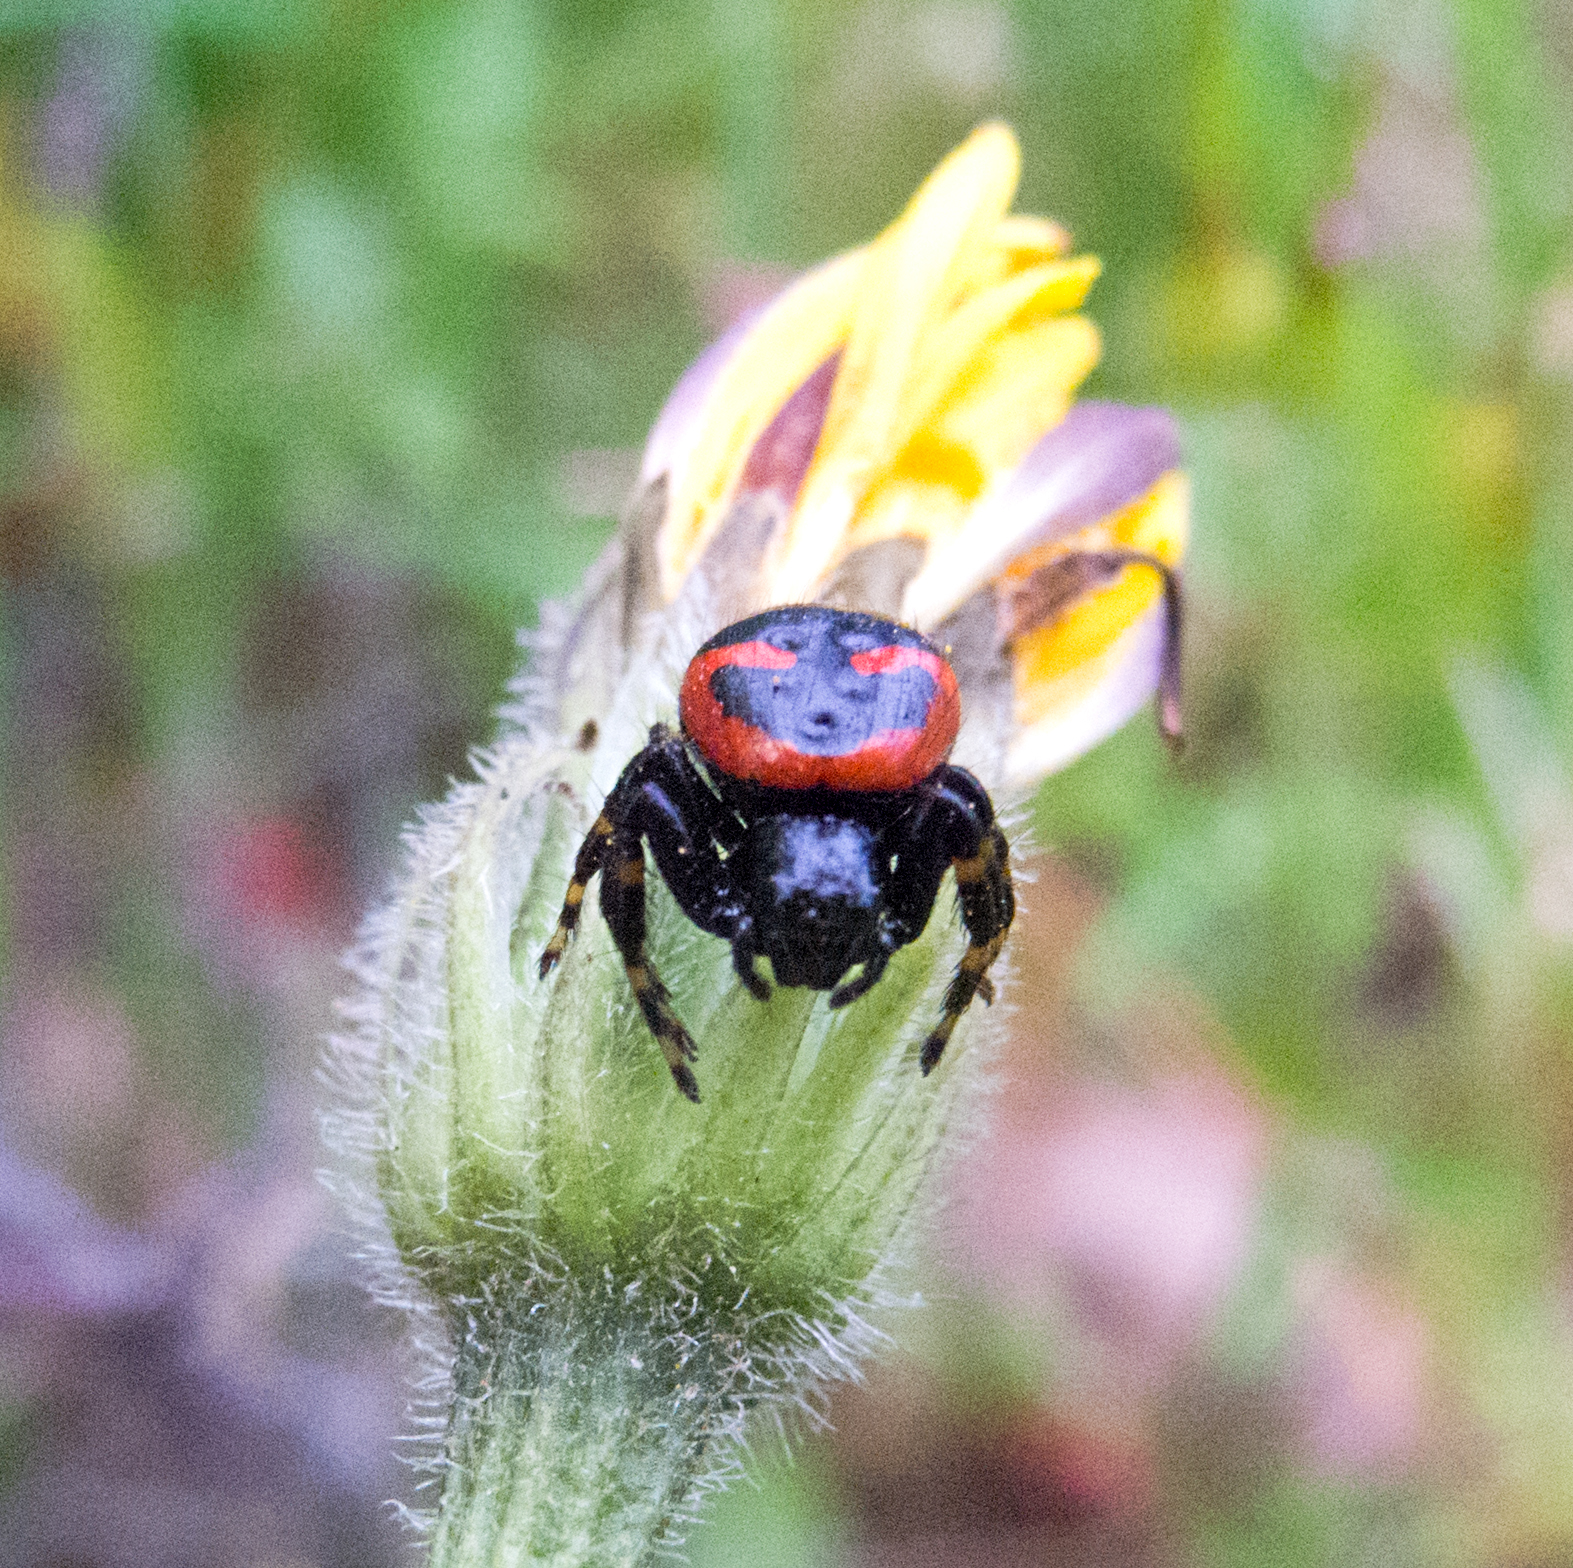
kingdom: Animalia
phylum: Arthropoda
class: Arachnida
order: Araneae
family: Thomisidae
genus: Synema
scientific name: Synema plorator
